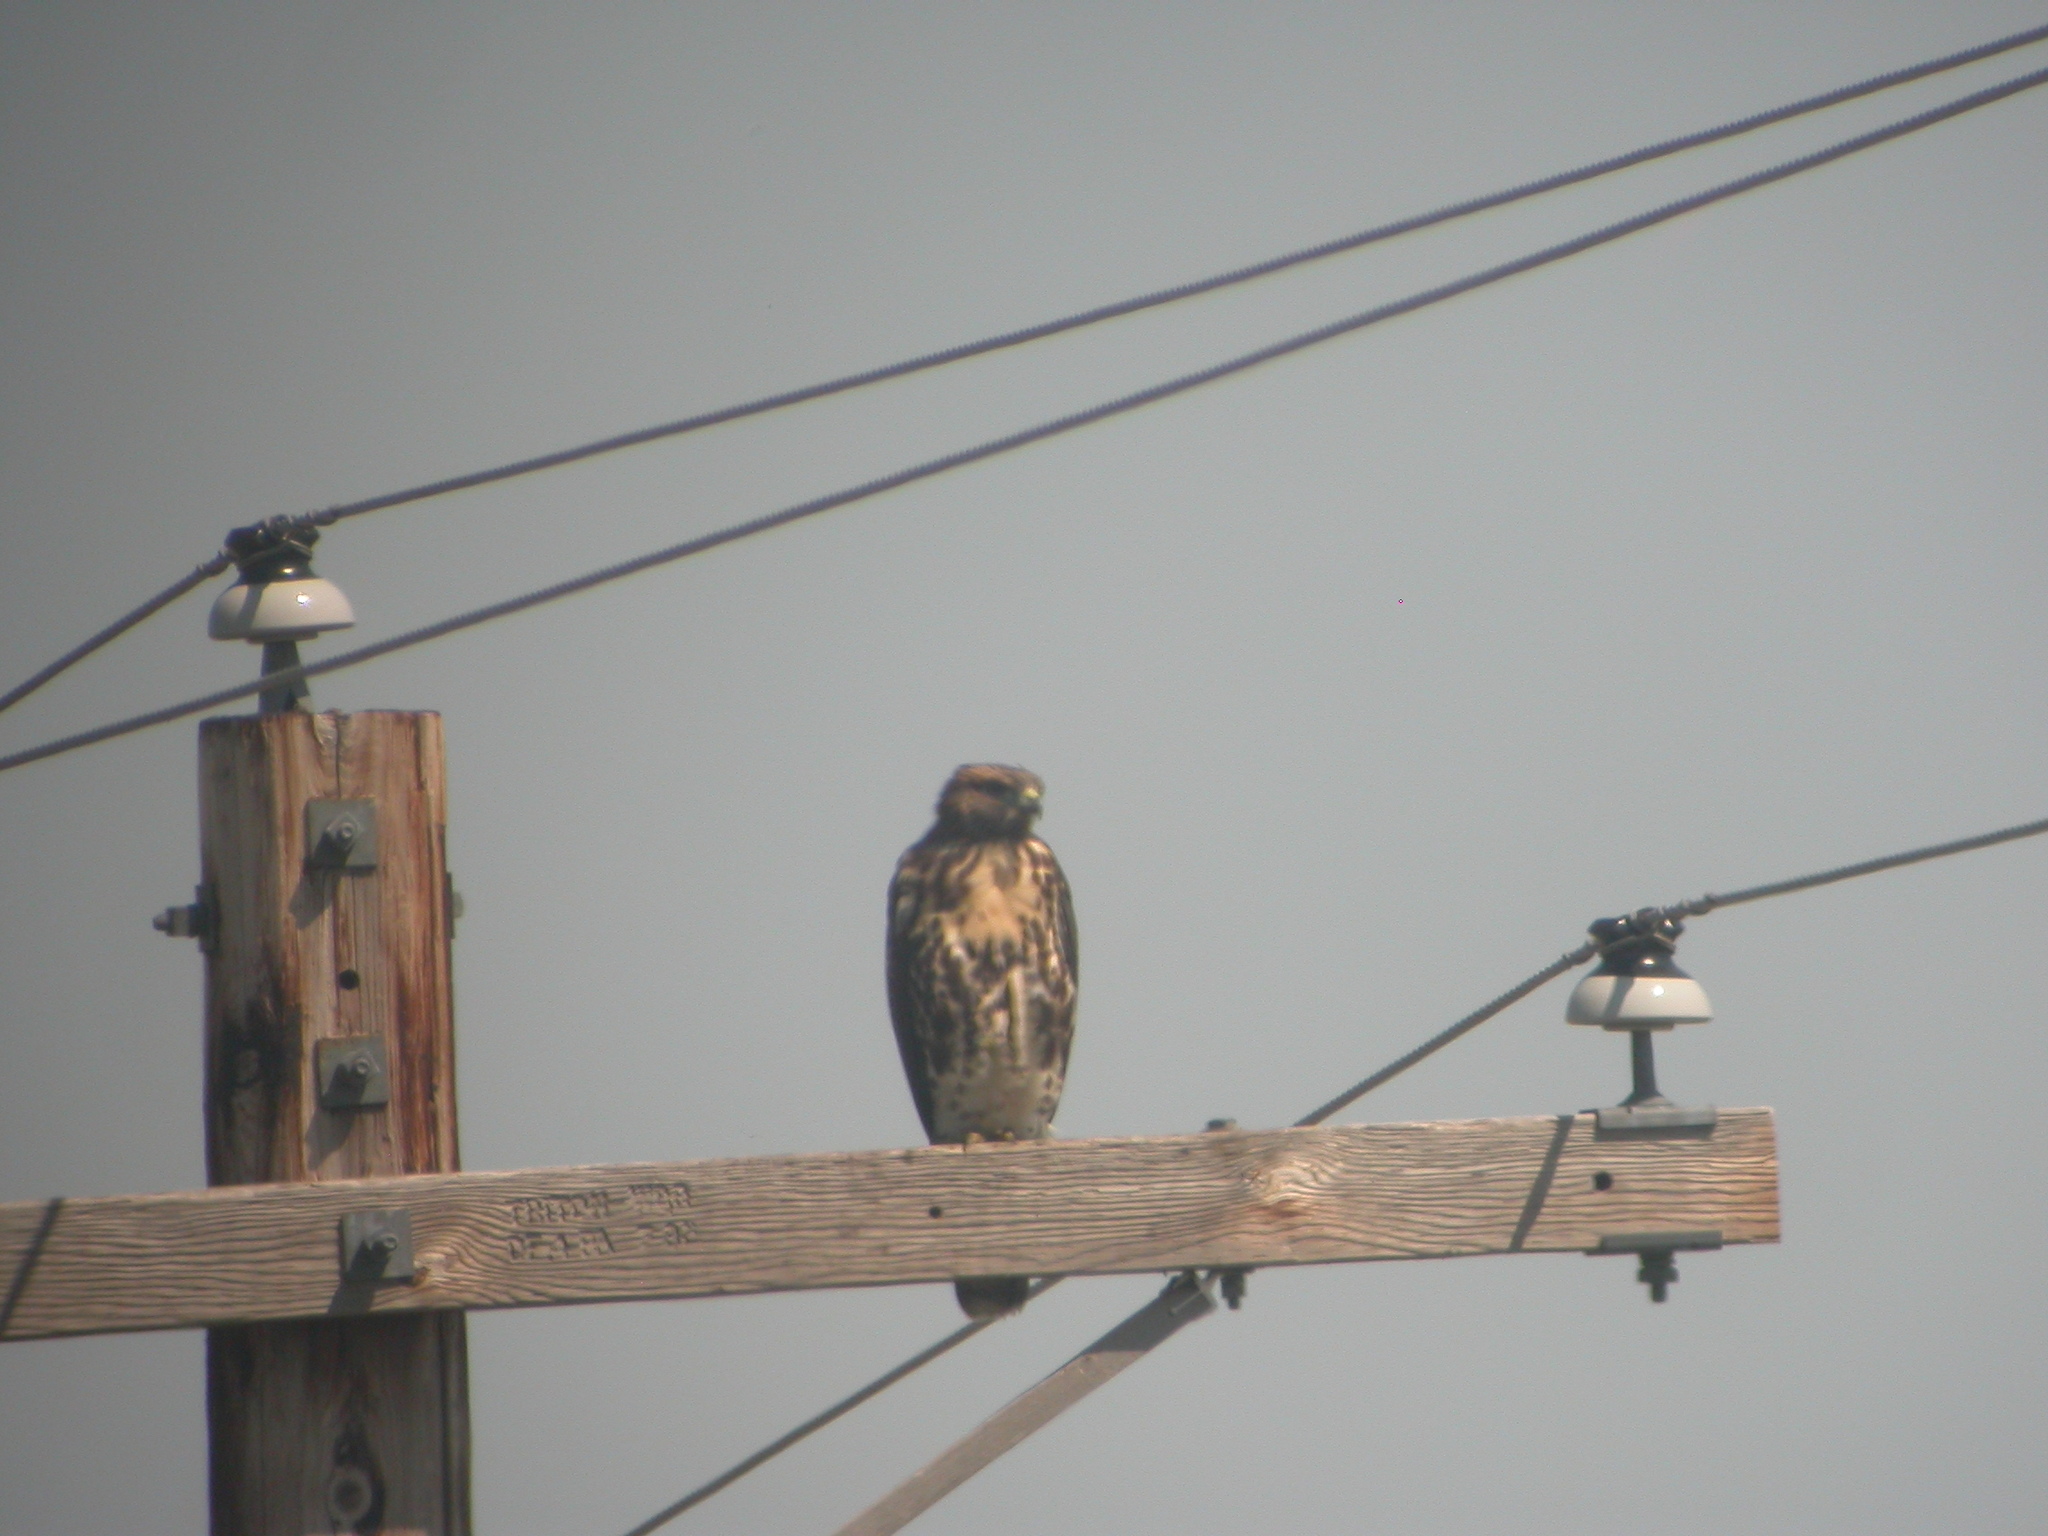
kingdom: Animalia
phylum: Chordata
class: Aves
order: Accipitriformes
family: Accipitridae
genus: Buteo
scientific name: Buteo jamaicensis
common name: Red-tailed hawk
